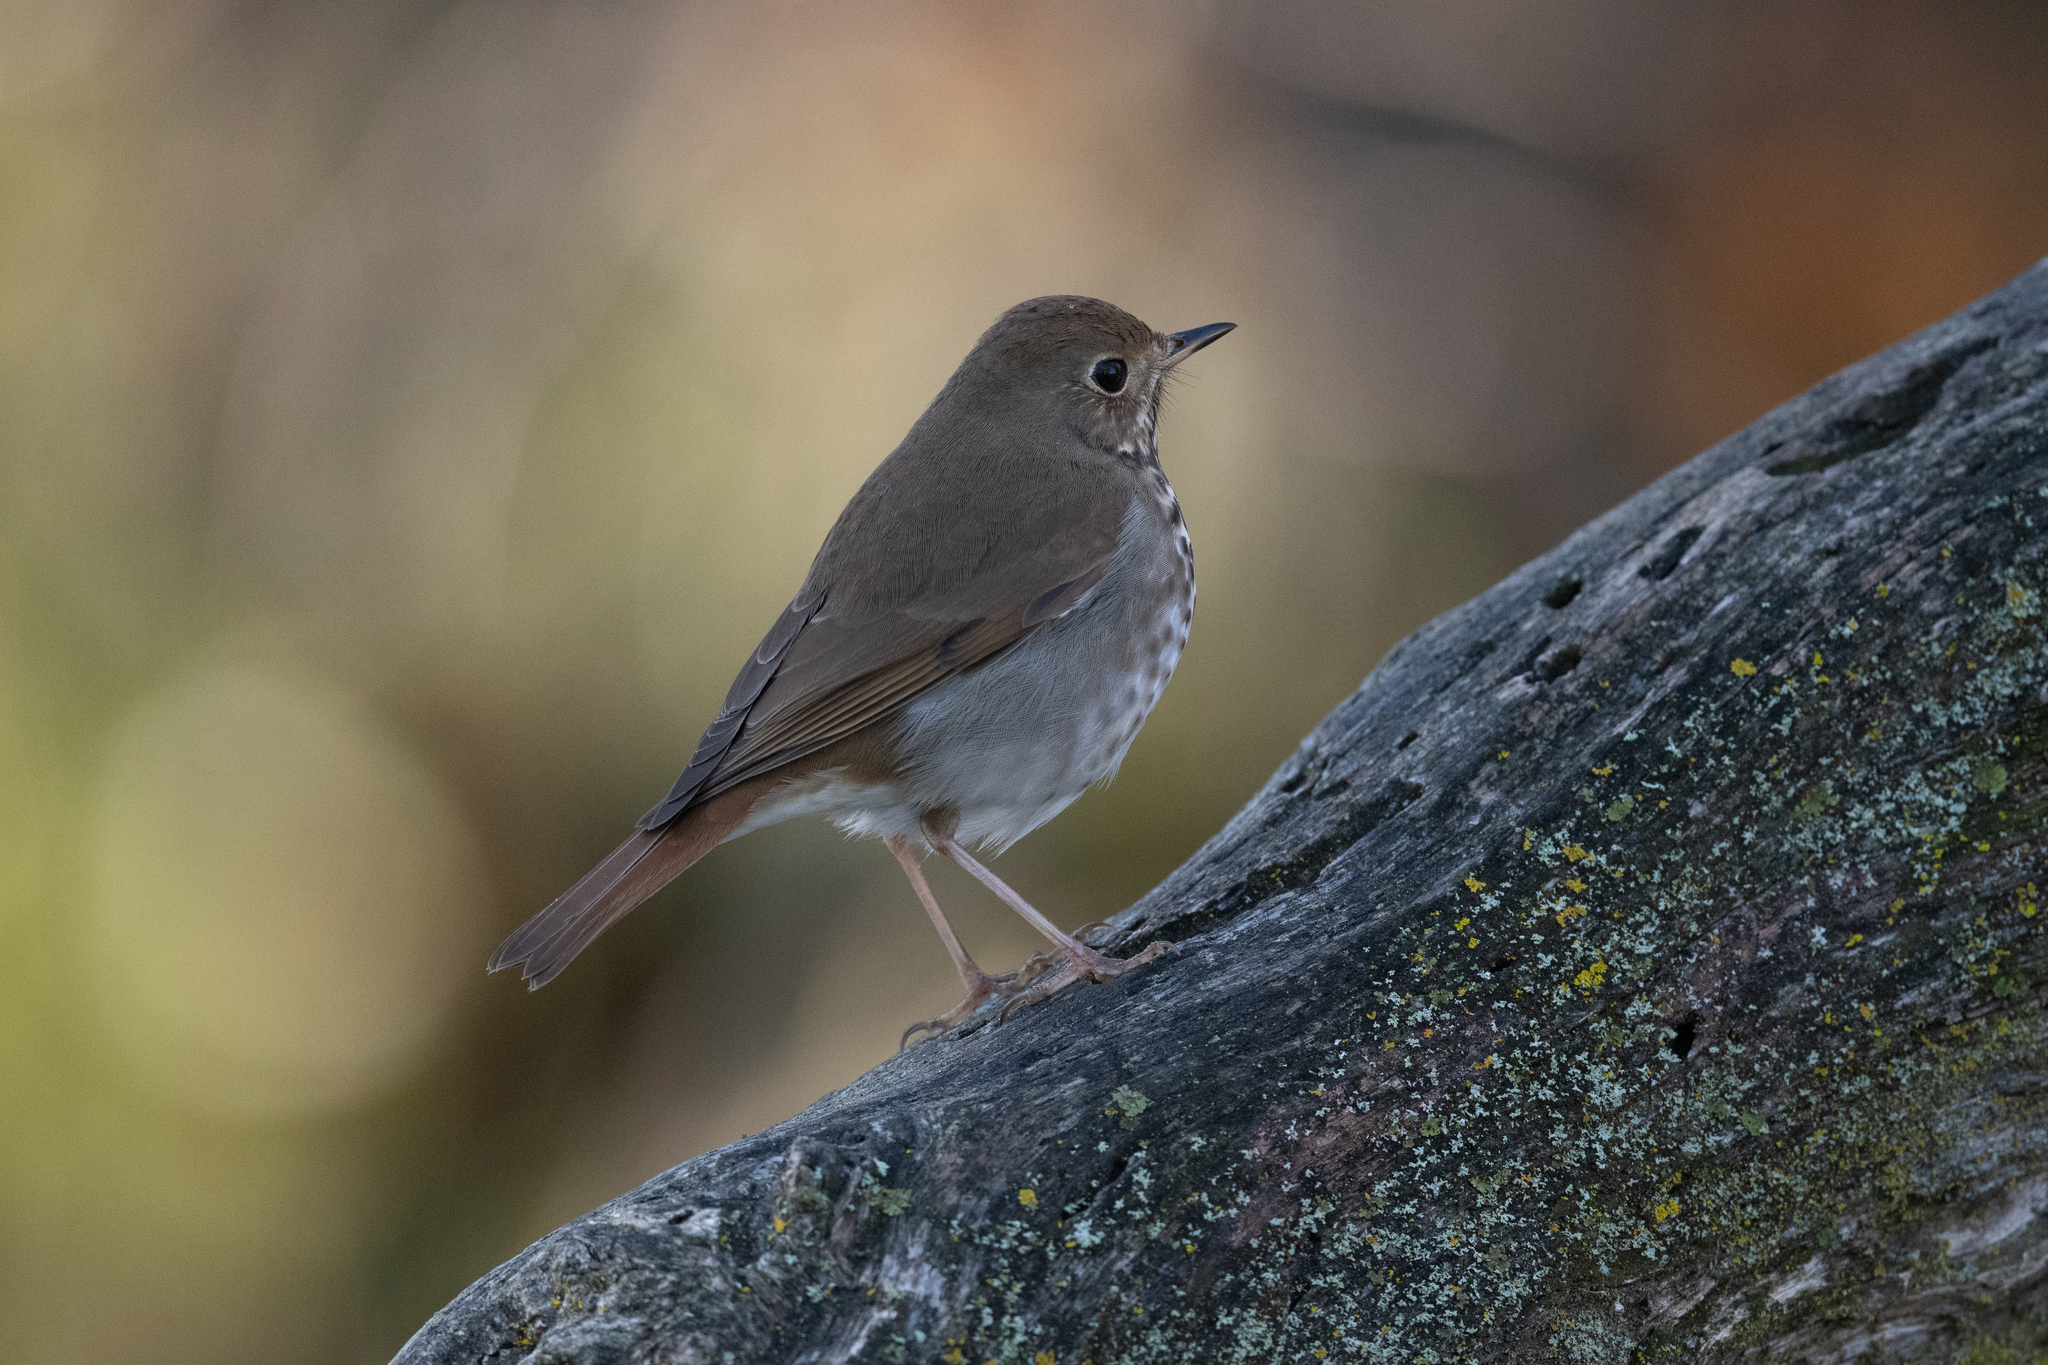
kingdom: Animalia
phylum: Chordata
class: Aves
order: Passeriformes
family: Turdidae
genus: Catharus
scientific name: Catharus guttatus
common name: Hermit thrush
